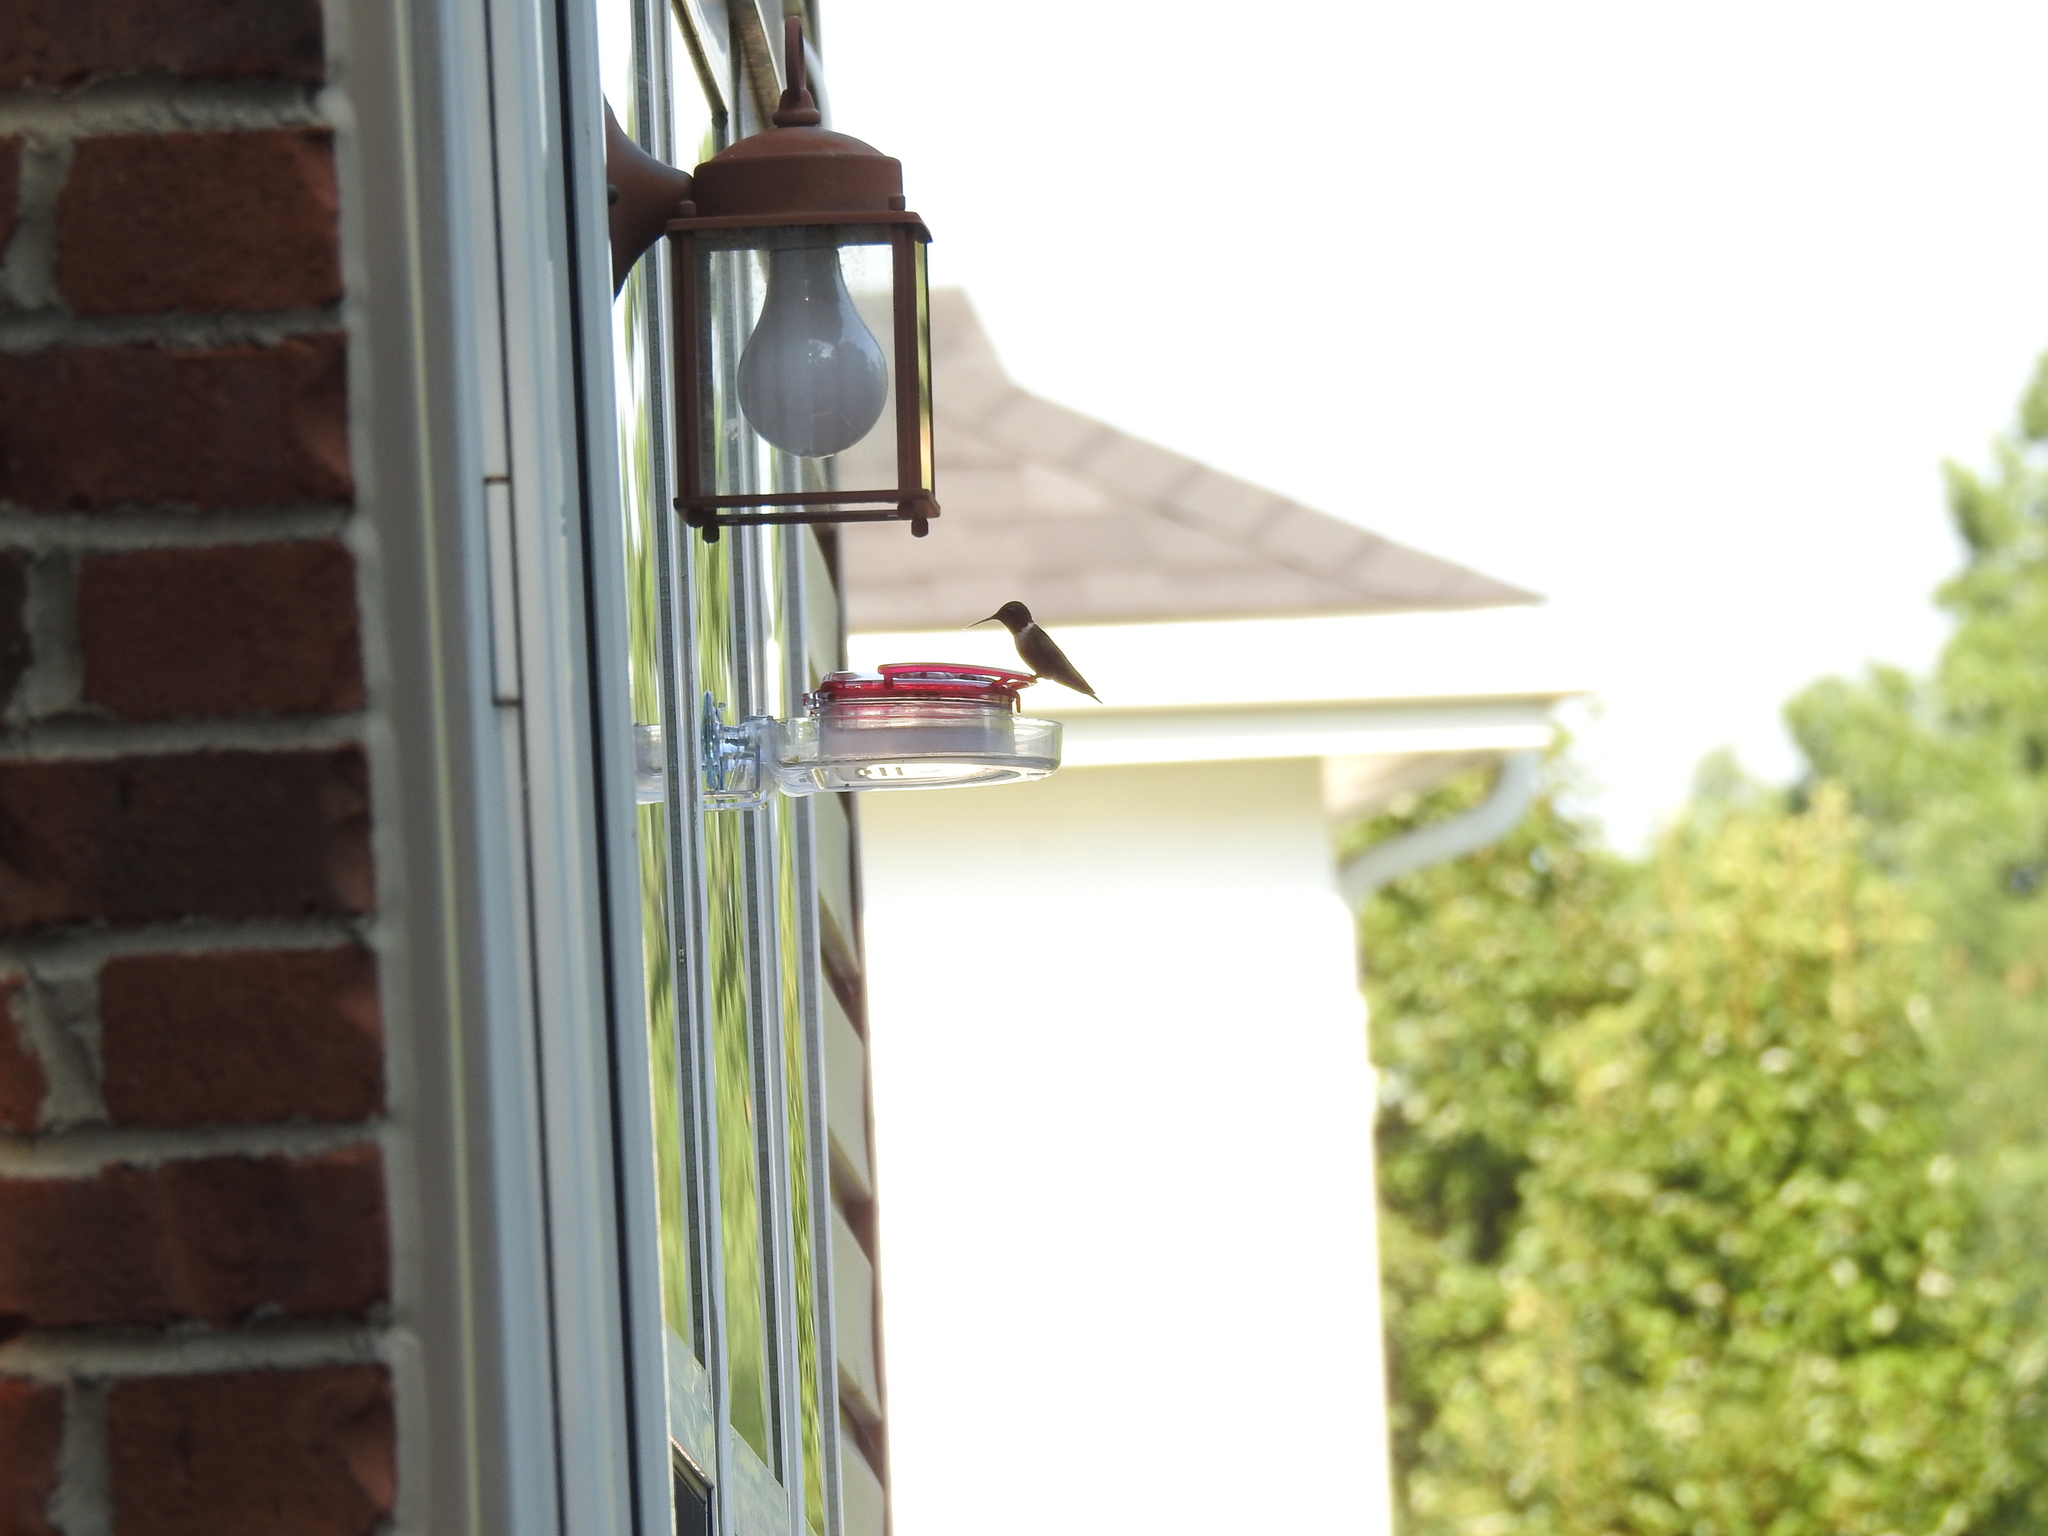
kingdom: Animalia
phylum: Chordata
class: Aves
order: Apodiformes
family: Trochilidae
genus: Archilochus
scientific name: Archilochus colubris
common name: Ruby-throated hummingbird
